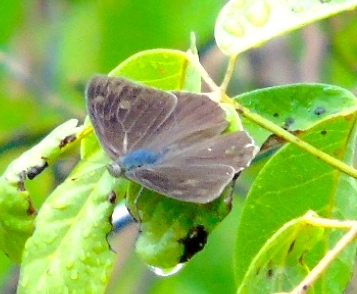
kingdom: Animalia
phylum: Arthropoda
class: Insecta
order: Lepidoptera
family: Nymphalidae
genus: Eunica
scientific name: Eunica monima
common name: Dingy purplewing
